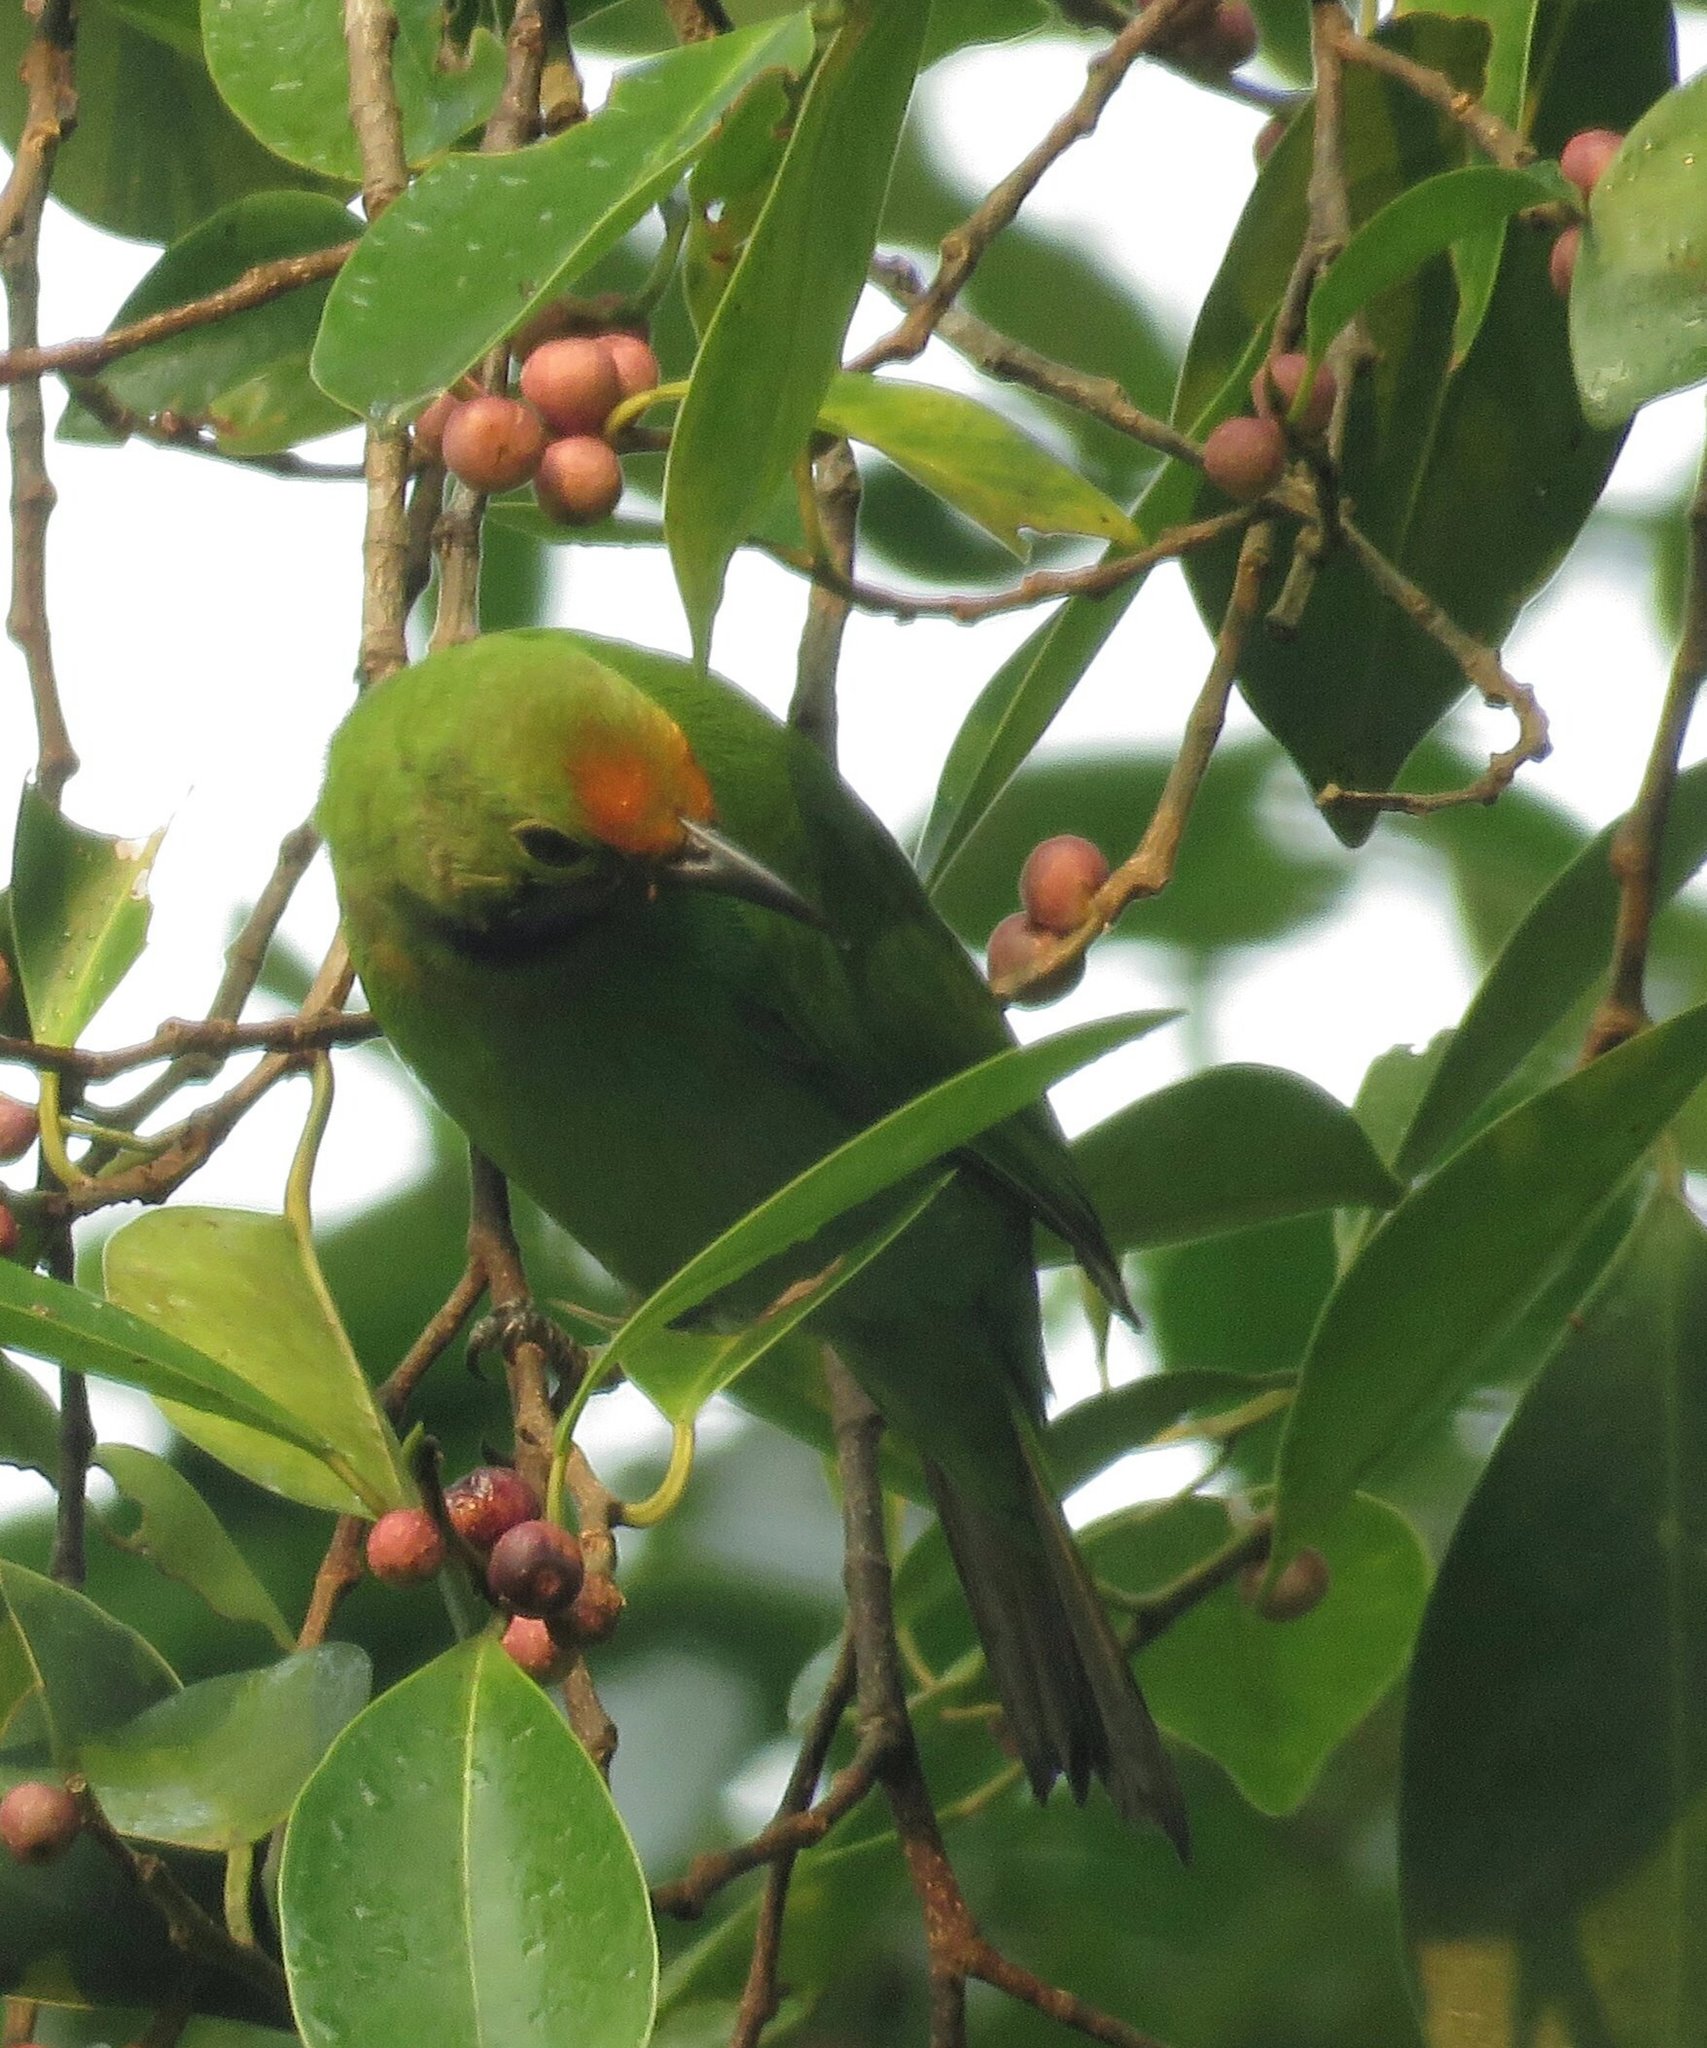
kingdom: Animalia
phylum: Chordata
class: Aves
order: Passeriformes
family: Chloropseidae
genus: Chloropsis
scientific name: Chloropsis aurifrons
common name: Golden-fronted leafbird
